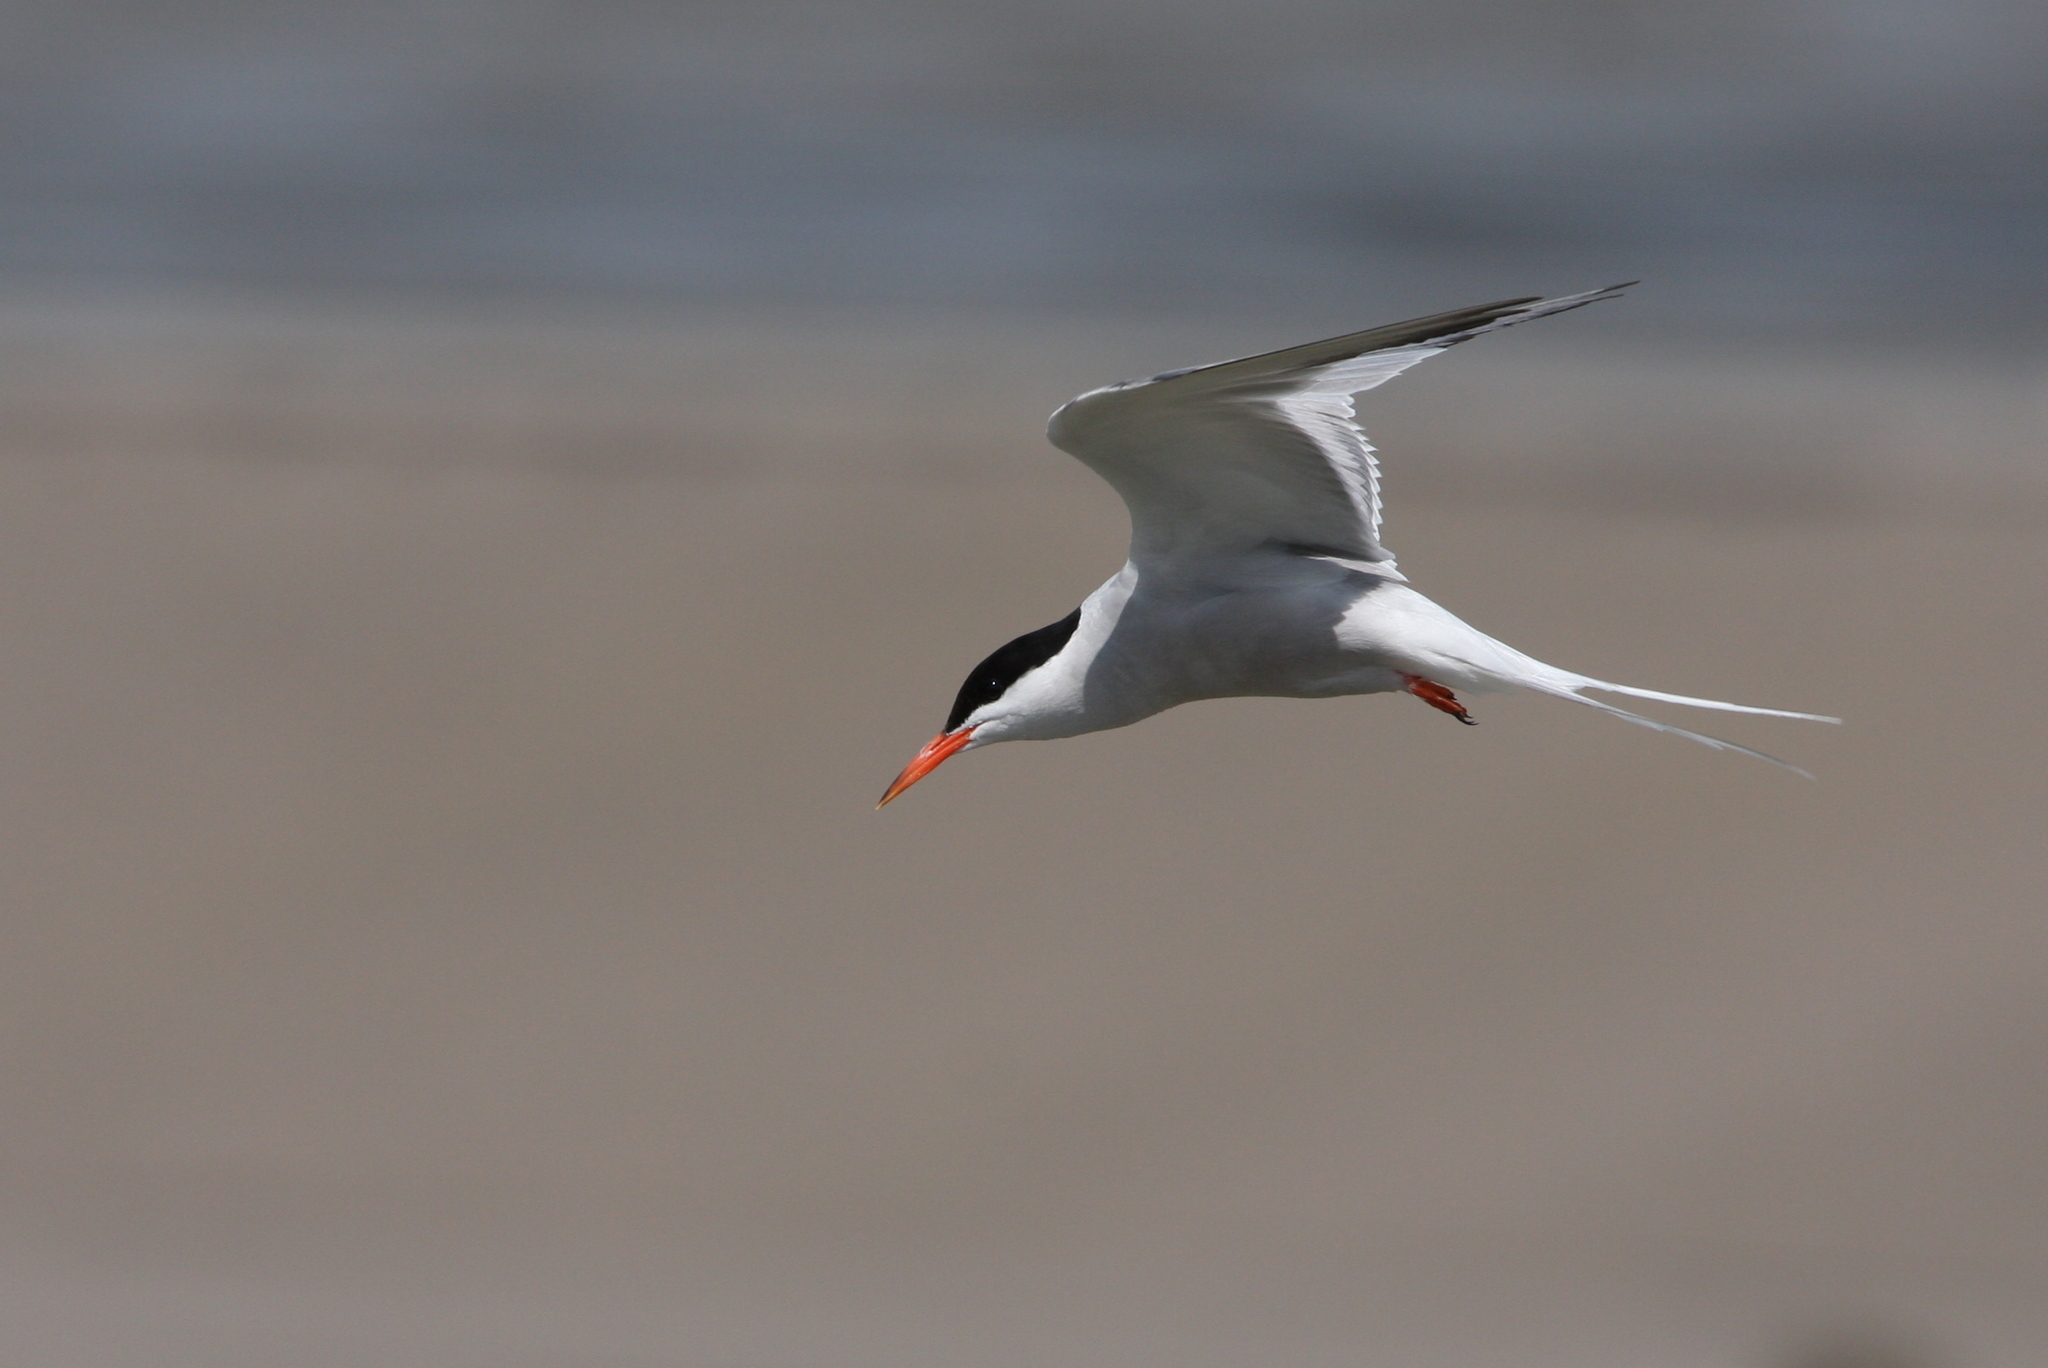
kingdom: Animalia
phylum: Chordata
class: Aves
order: Charadriiformes
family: Laridae
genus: Sterna
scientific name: Sterna hirundo
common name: Common tern
